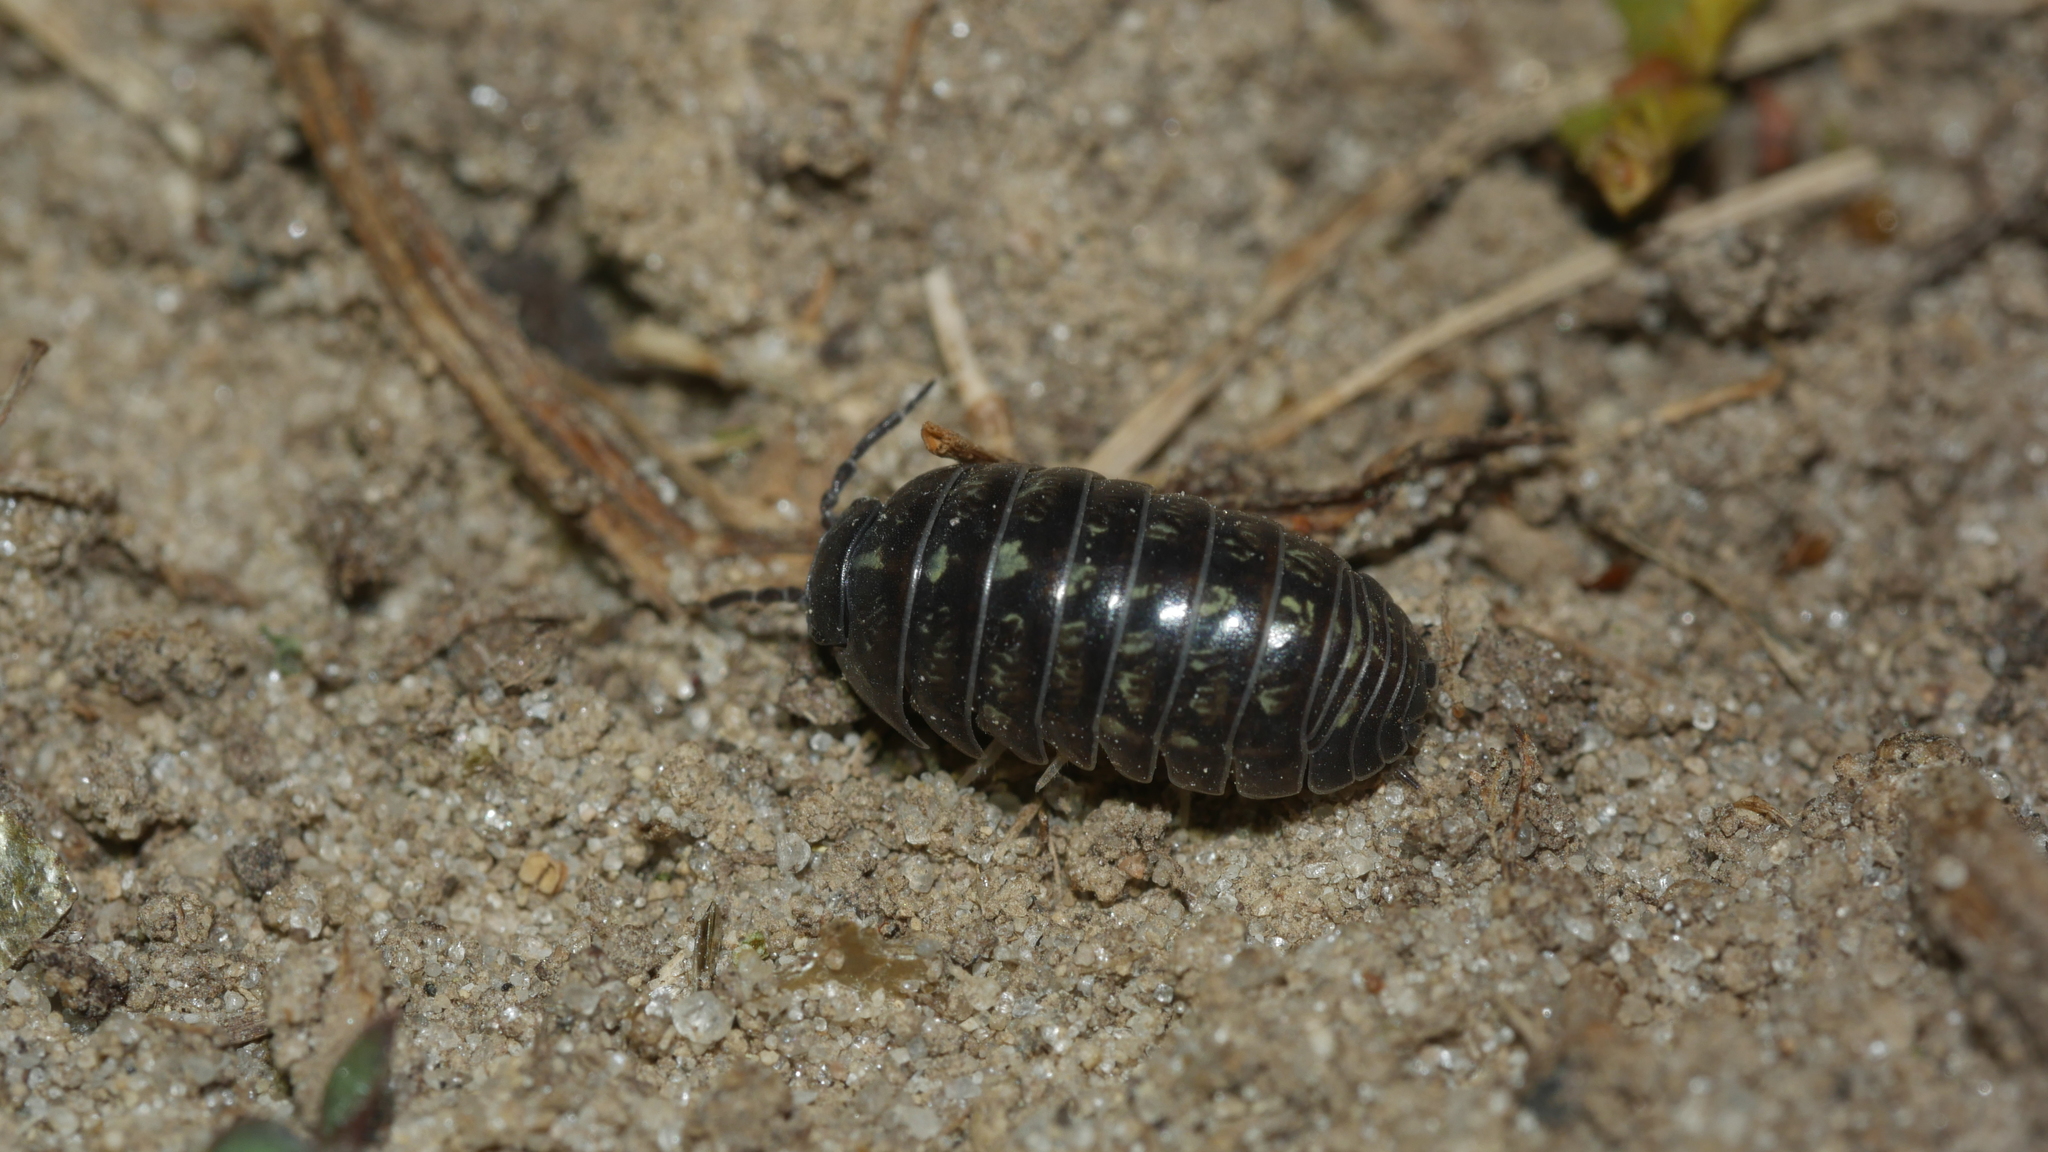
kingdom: Animalia
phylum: Arthropoda
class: Malacostraca
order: Isopoda
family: Armadillidiidae
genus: Armadillidium
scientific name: Armadillidium vulgare
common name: Common pill woodlouse
